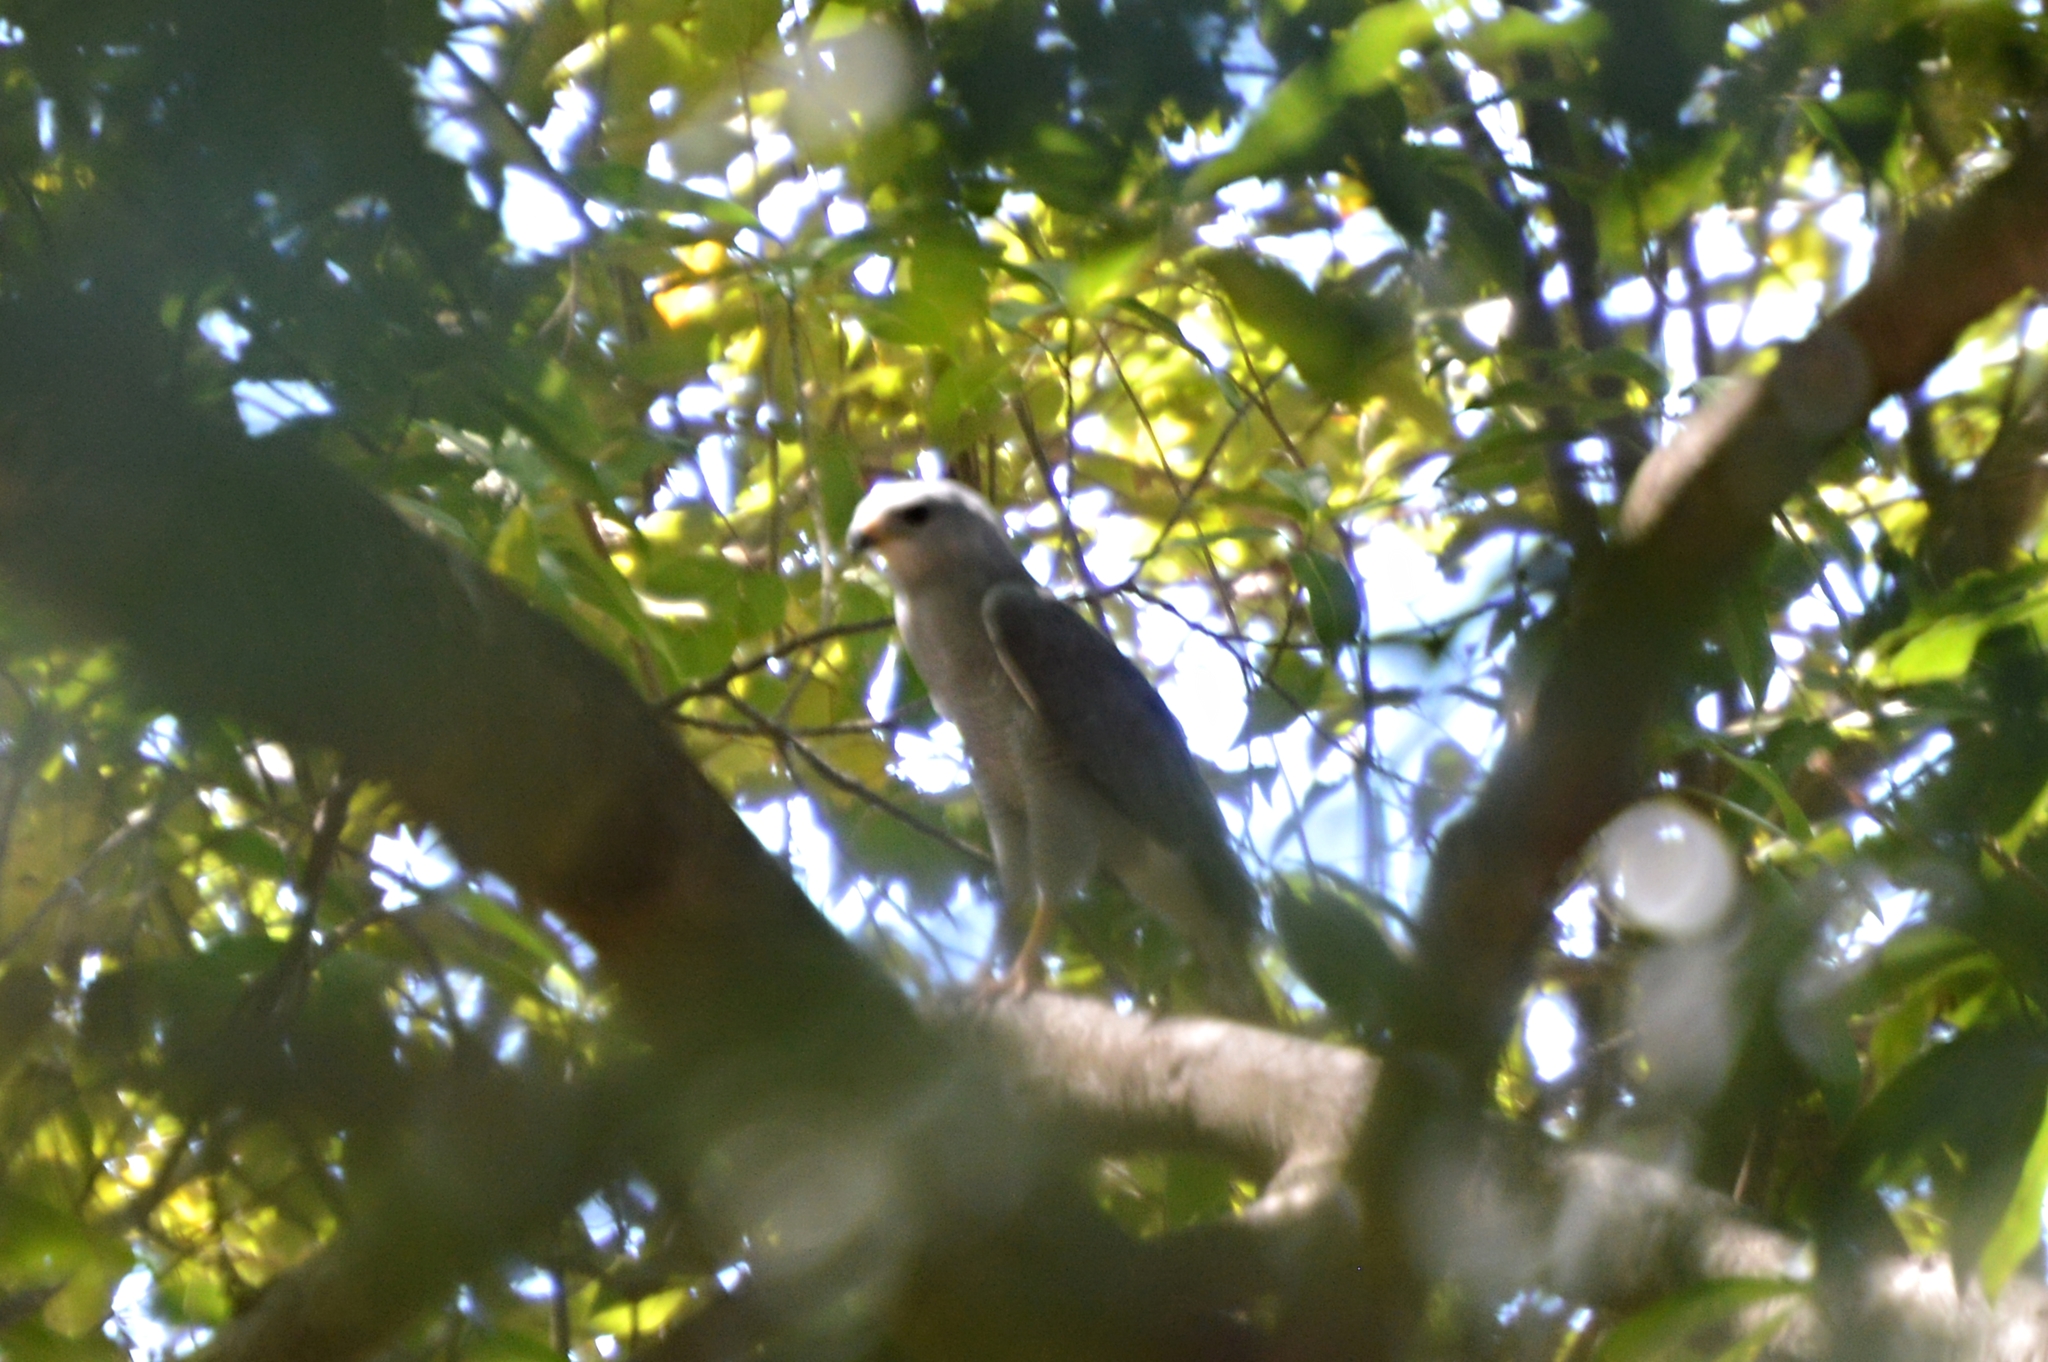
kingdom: Animalia
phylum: Chordata
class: Aves
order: Accipitriformes
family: Accipitridae
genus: Buteo
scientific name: Buteo nitidus
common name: Grey-lined hawk
